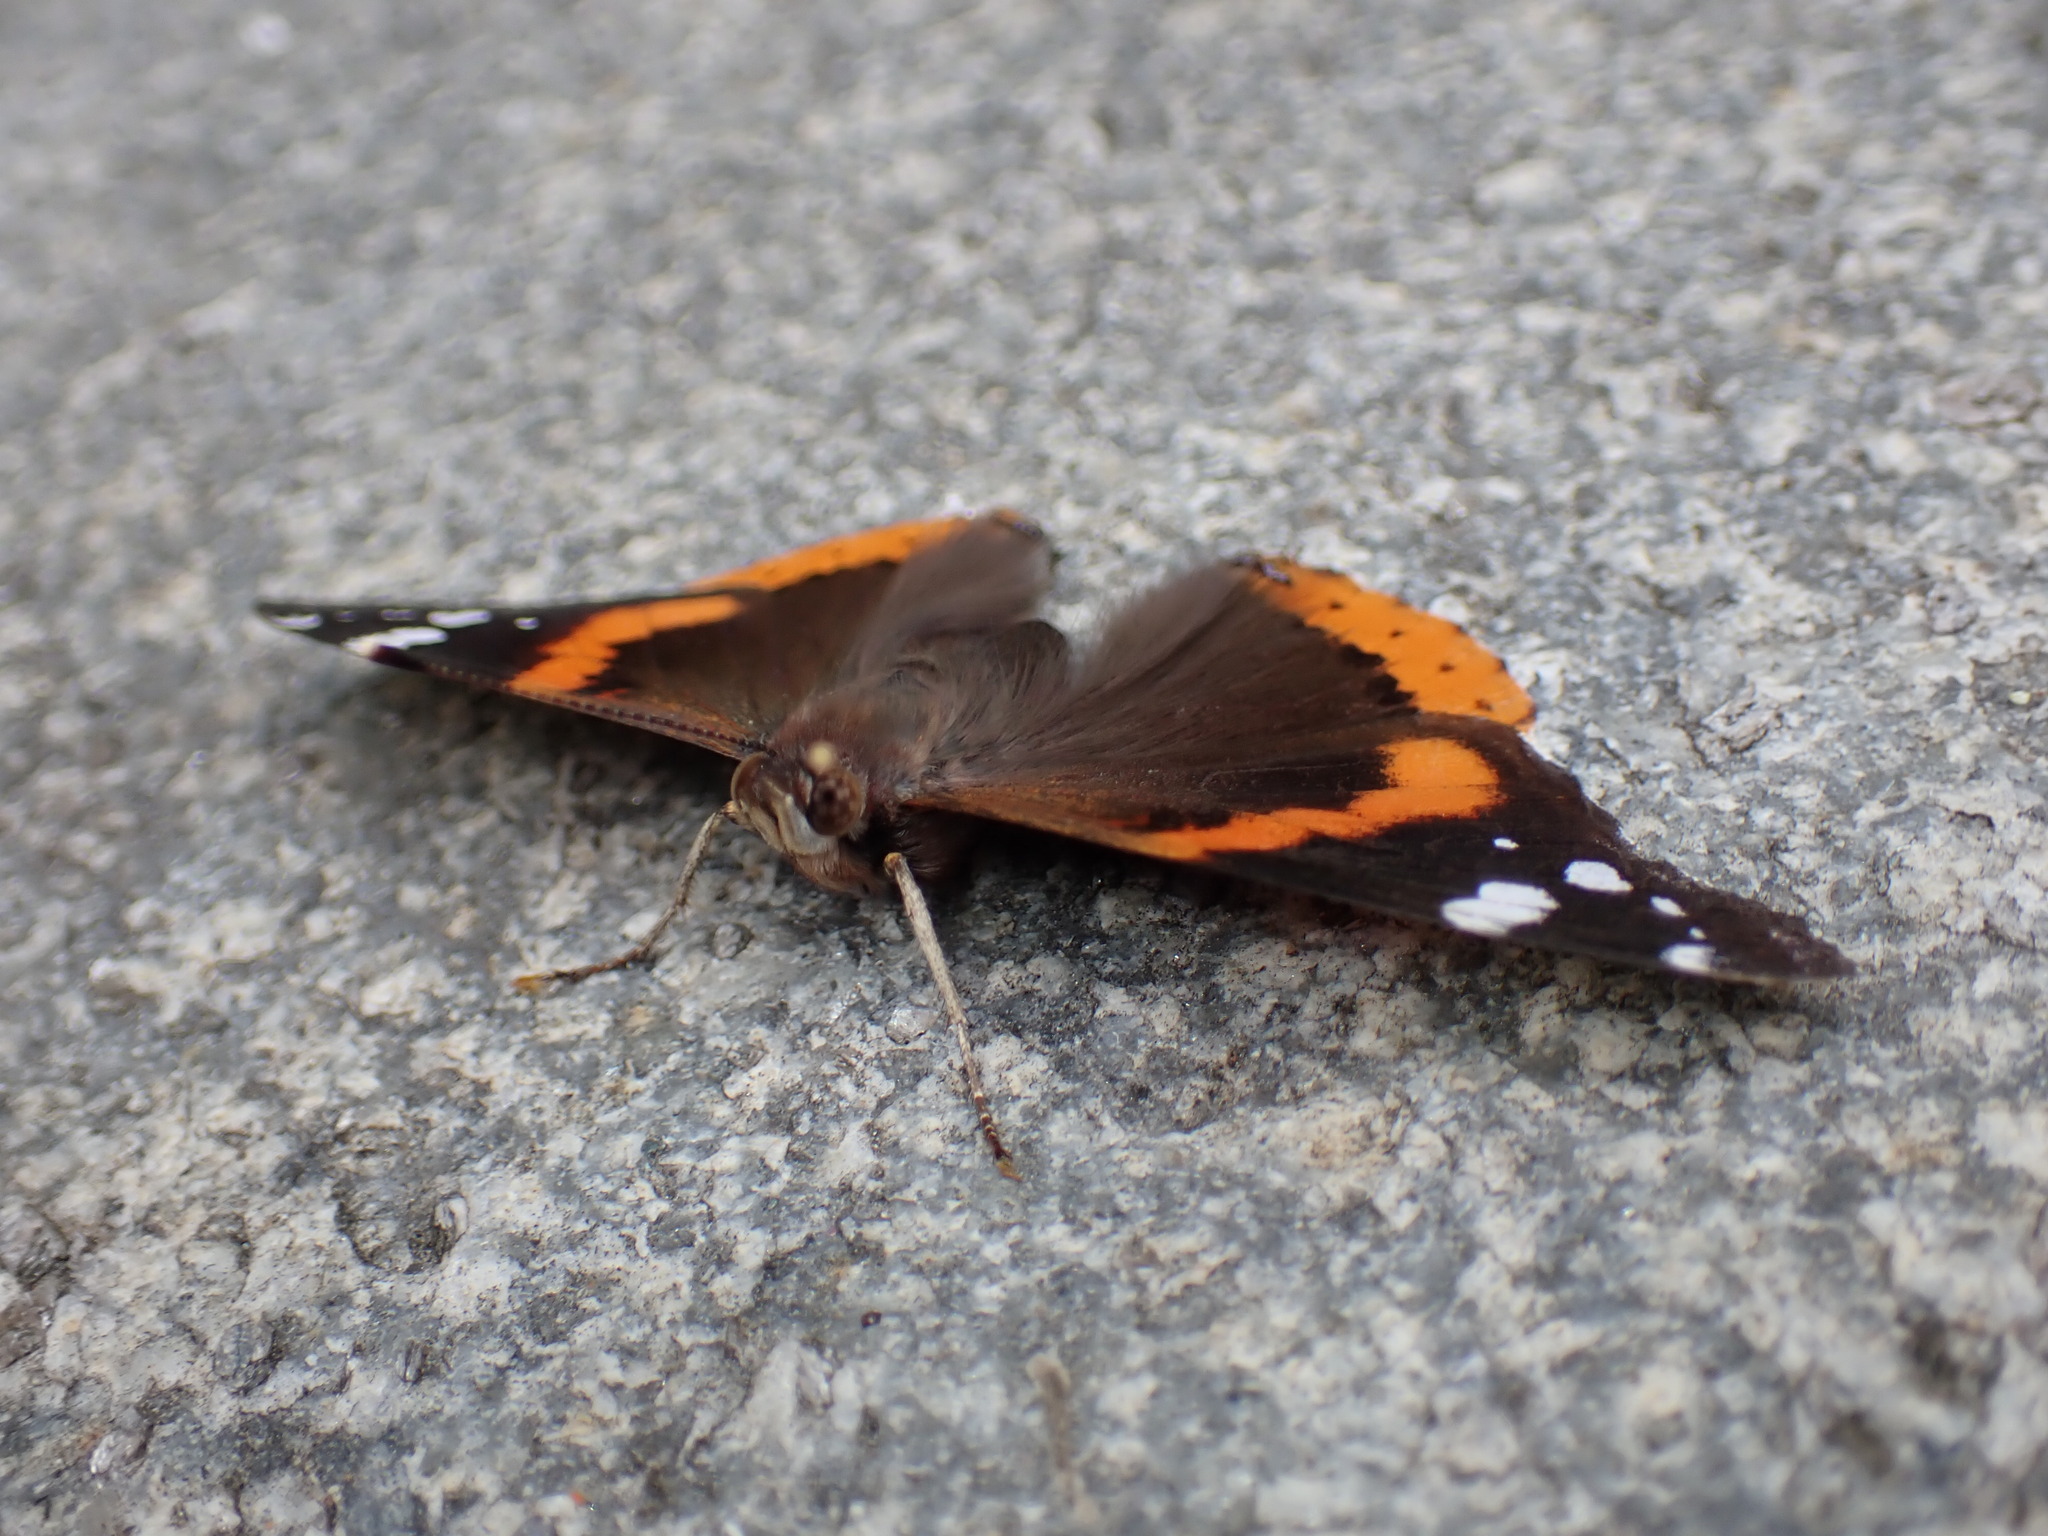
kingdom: Animalia
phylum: Arthropoda
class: Insecta
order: Lepidoptera
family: Nymphalidae
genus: Vanessa
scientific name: Vanessa atalanta
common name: Red admiral
